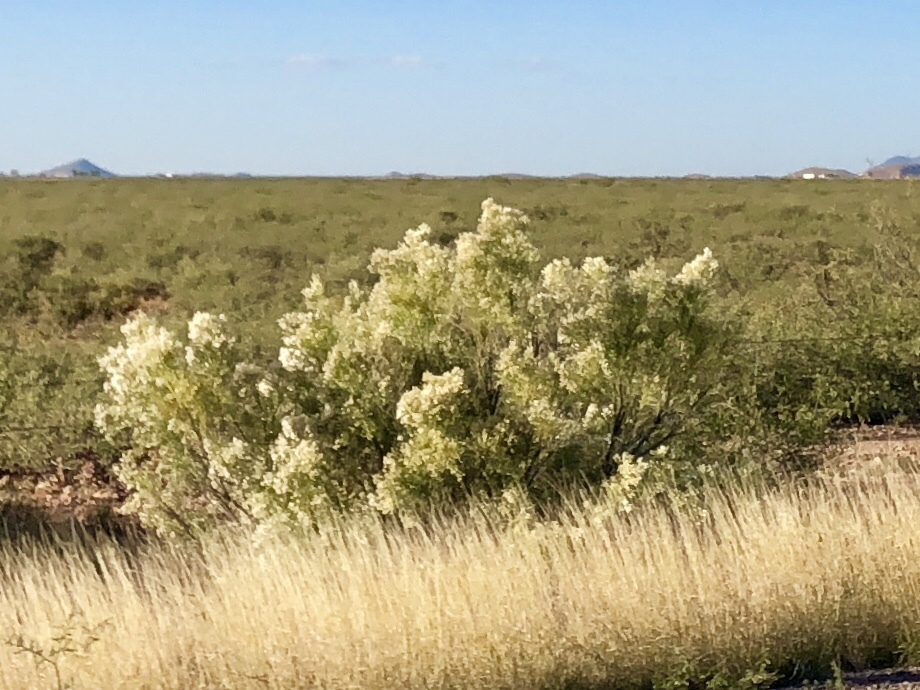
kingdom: Plantae
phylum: Tracheophyta
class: Magnoliopsida
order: Asterales
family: Asteraceae
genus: Baccharis
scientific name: Baccharis sarothroides
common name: Desert-broom
